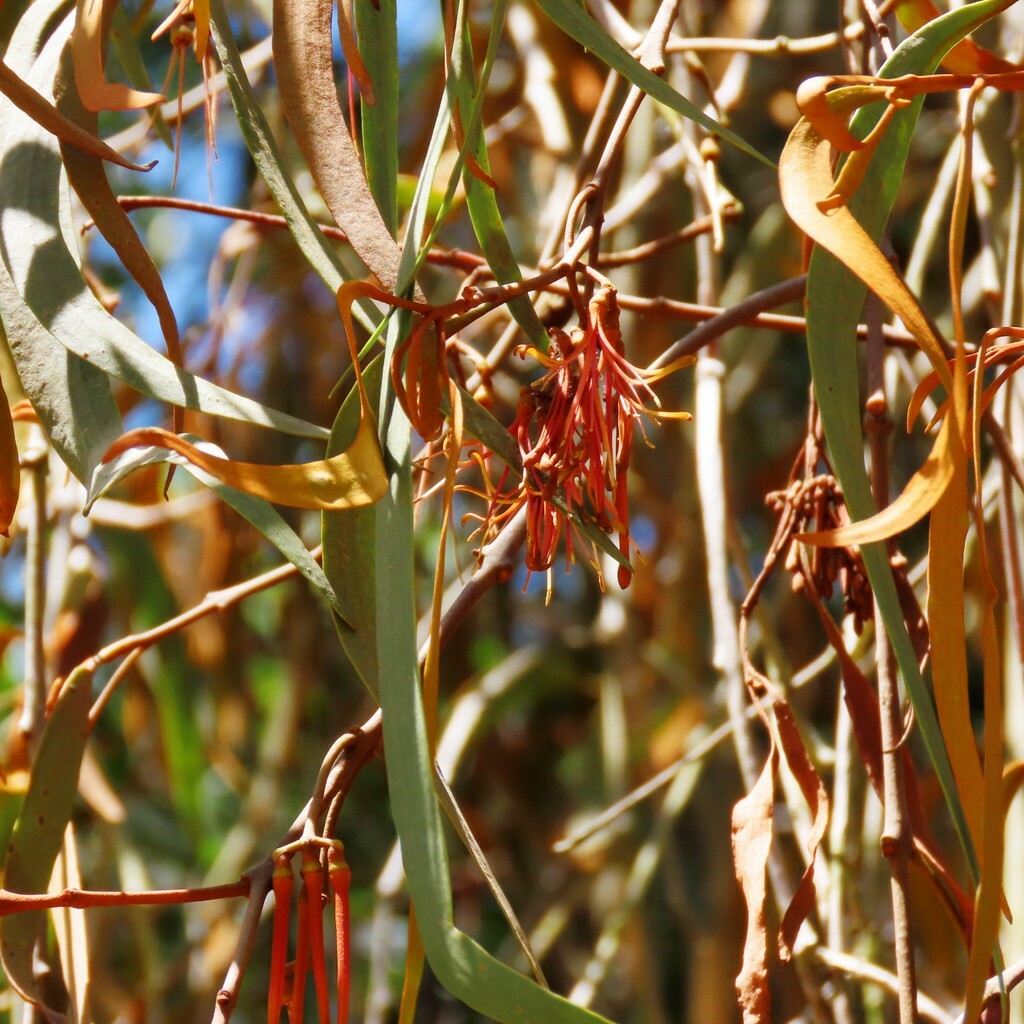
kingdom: Plantae
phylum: Tracheophyta
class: Magnoliopsida
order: Santalales
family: Loranthaceae
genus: Amyema
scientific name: Amyema pendula
